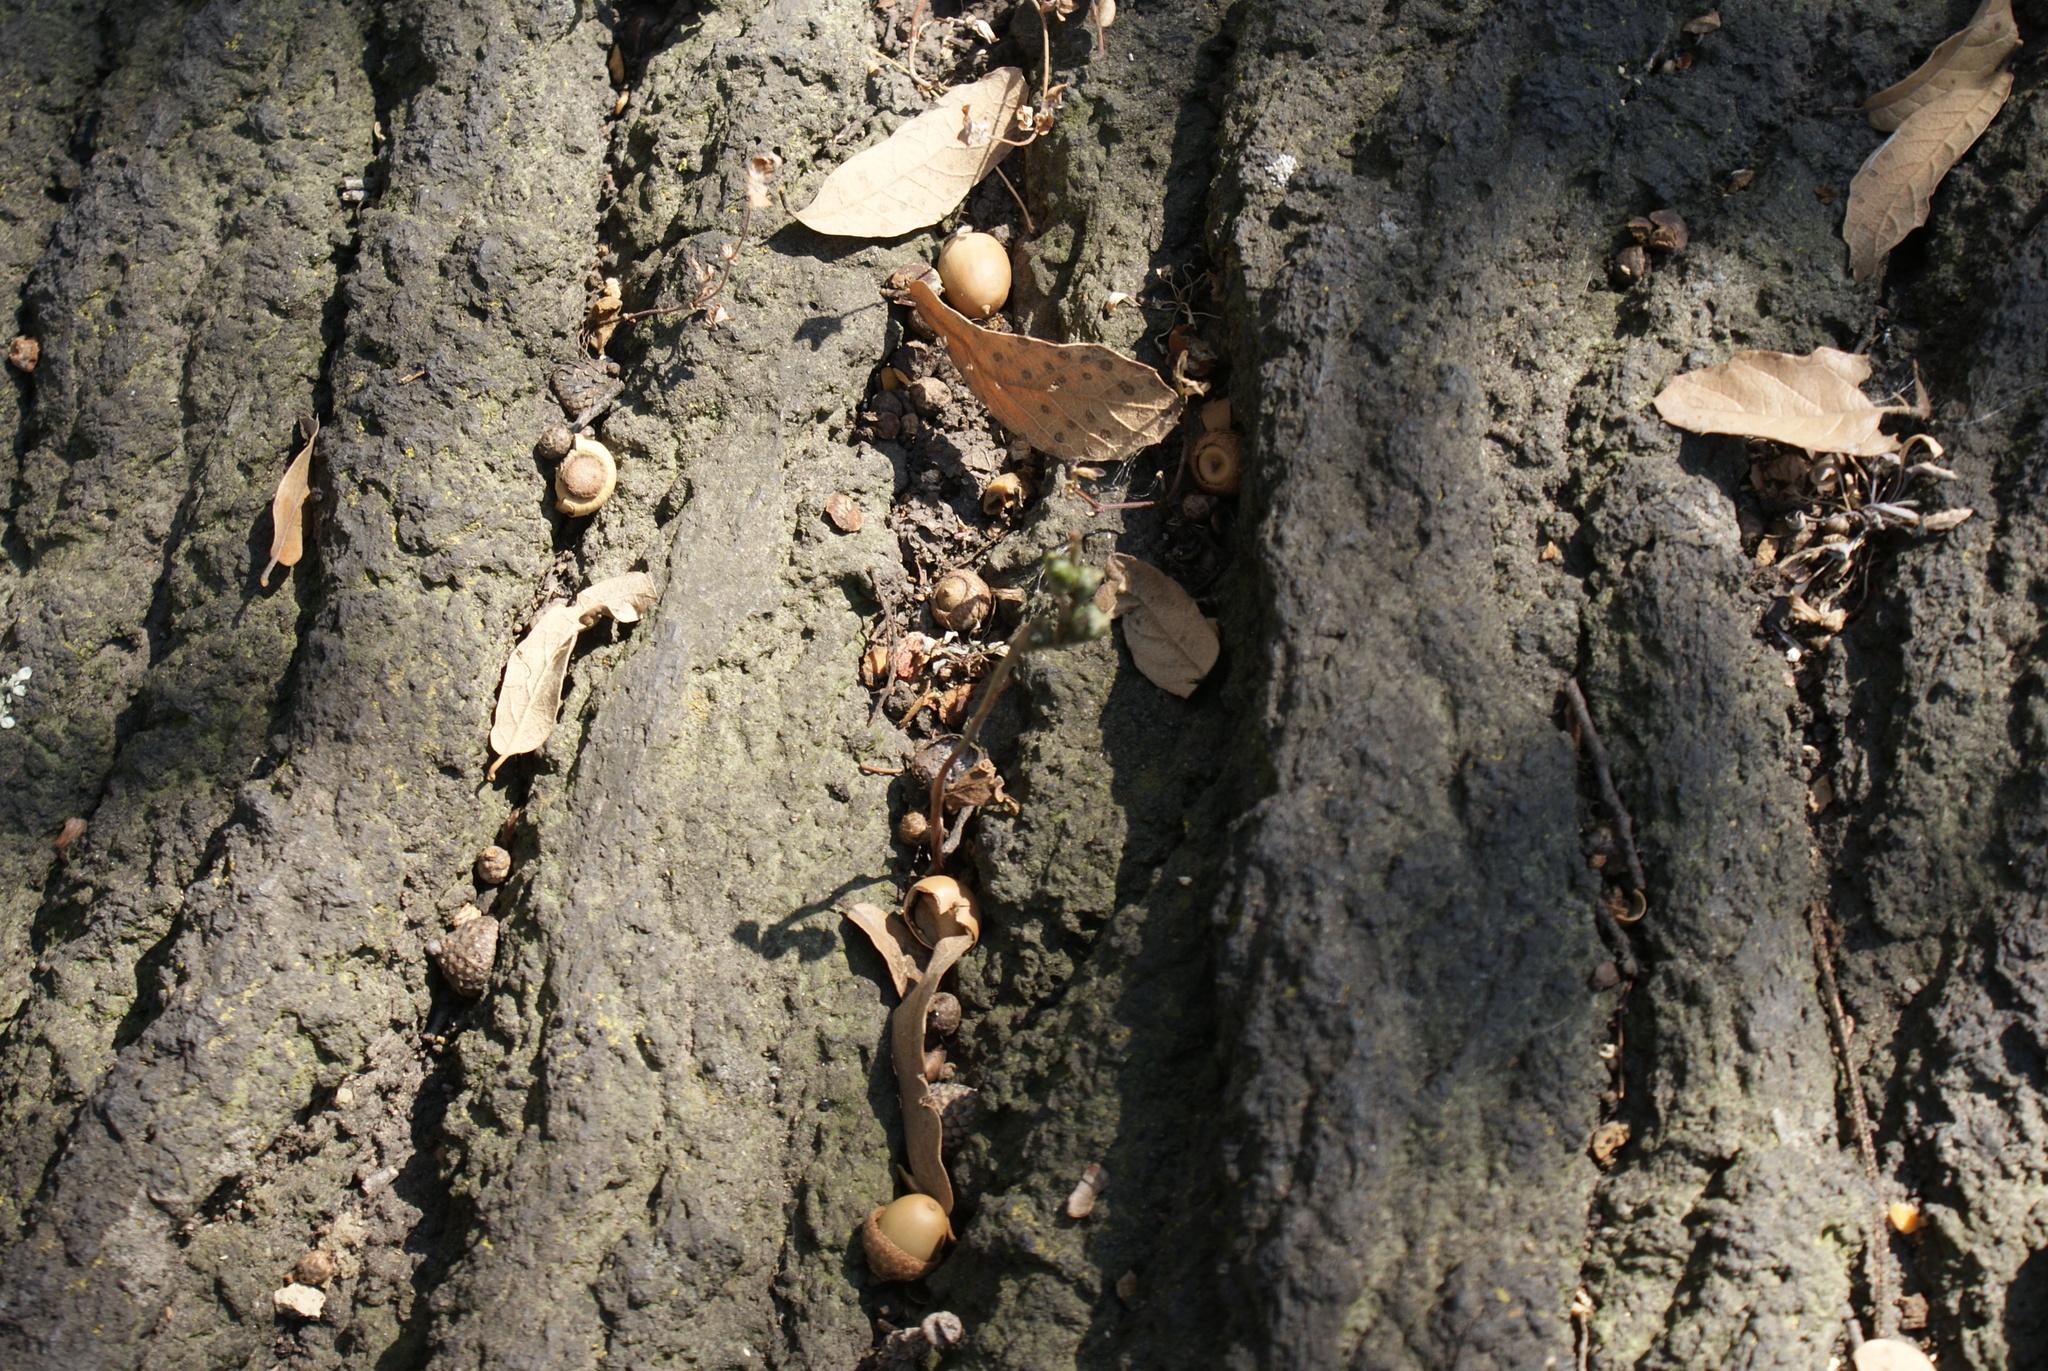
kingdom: Plantae
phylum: Tracheophyta
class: Liliopsida
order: Asparagales
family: Orchidaceae
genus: Microthelys
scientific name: Microthelys minutiflora
